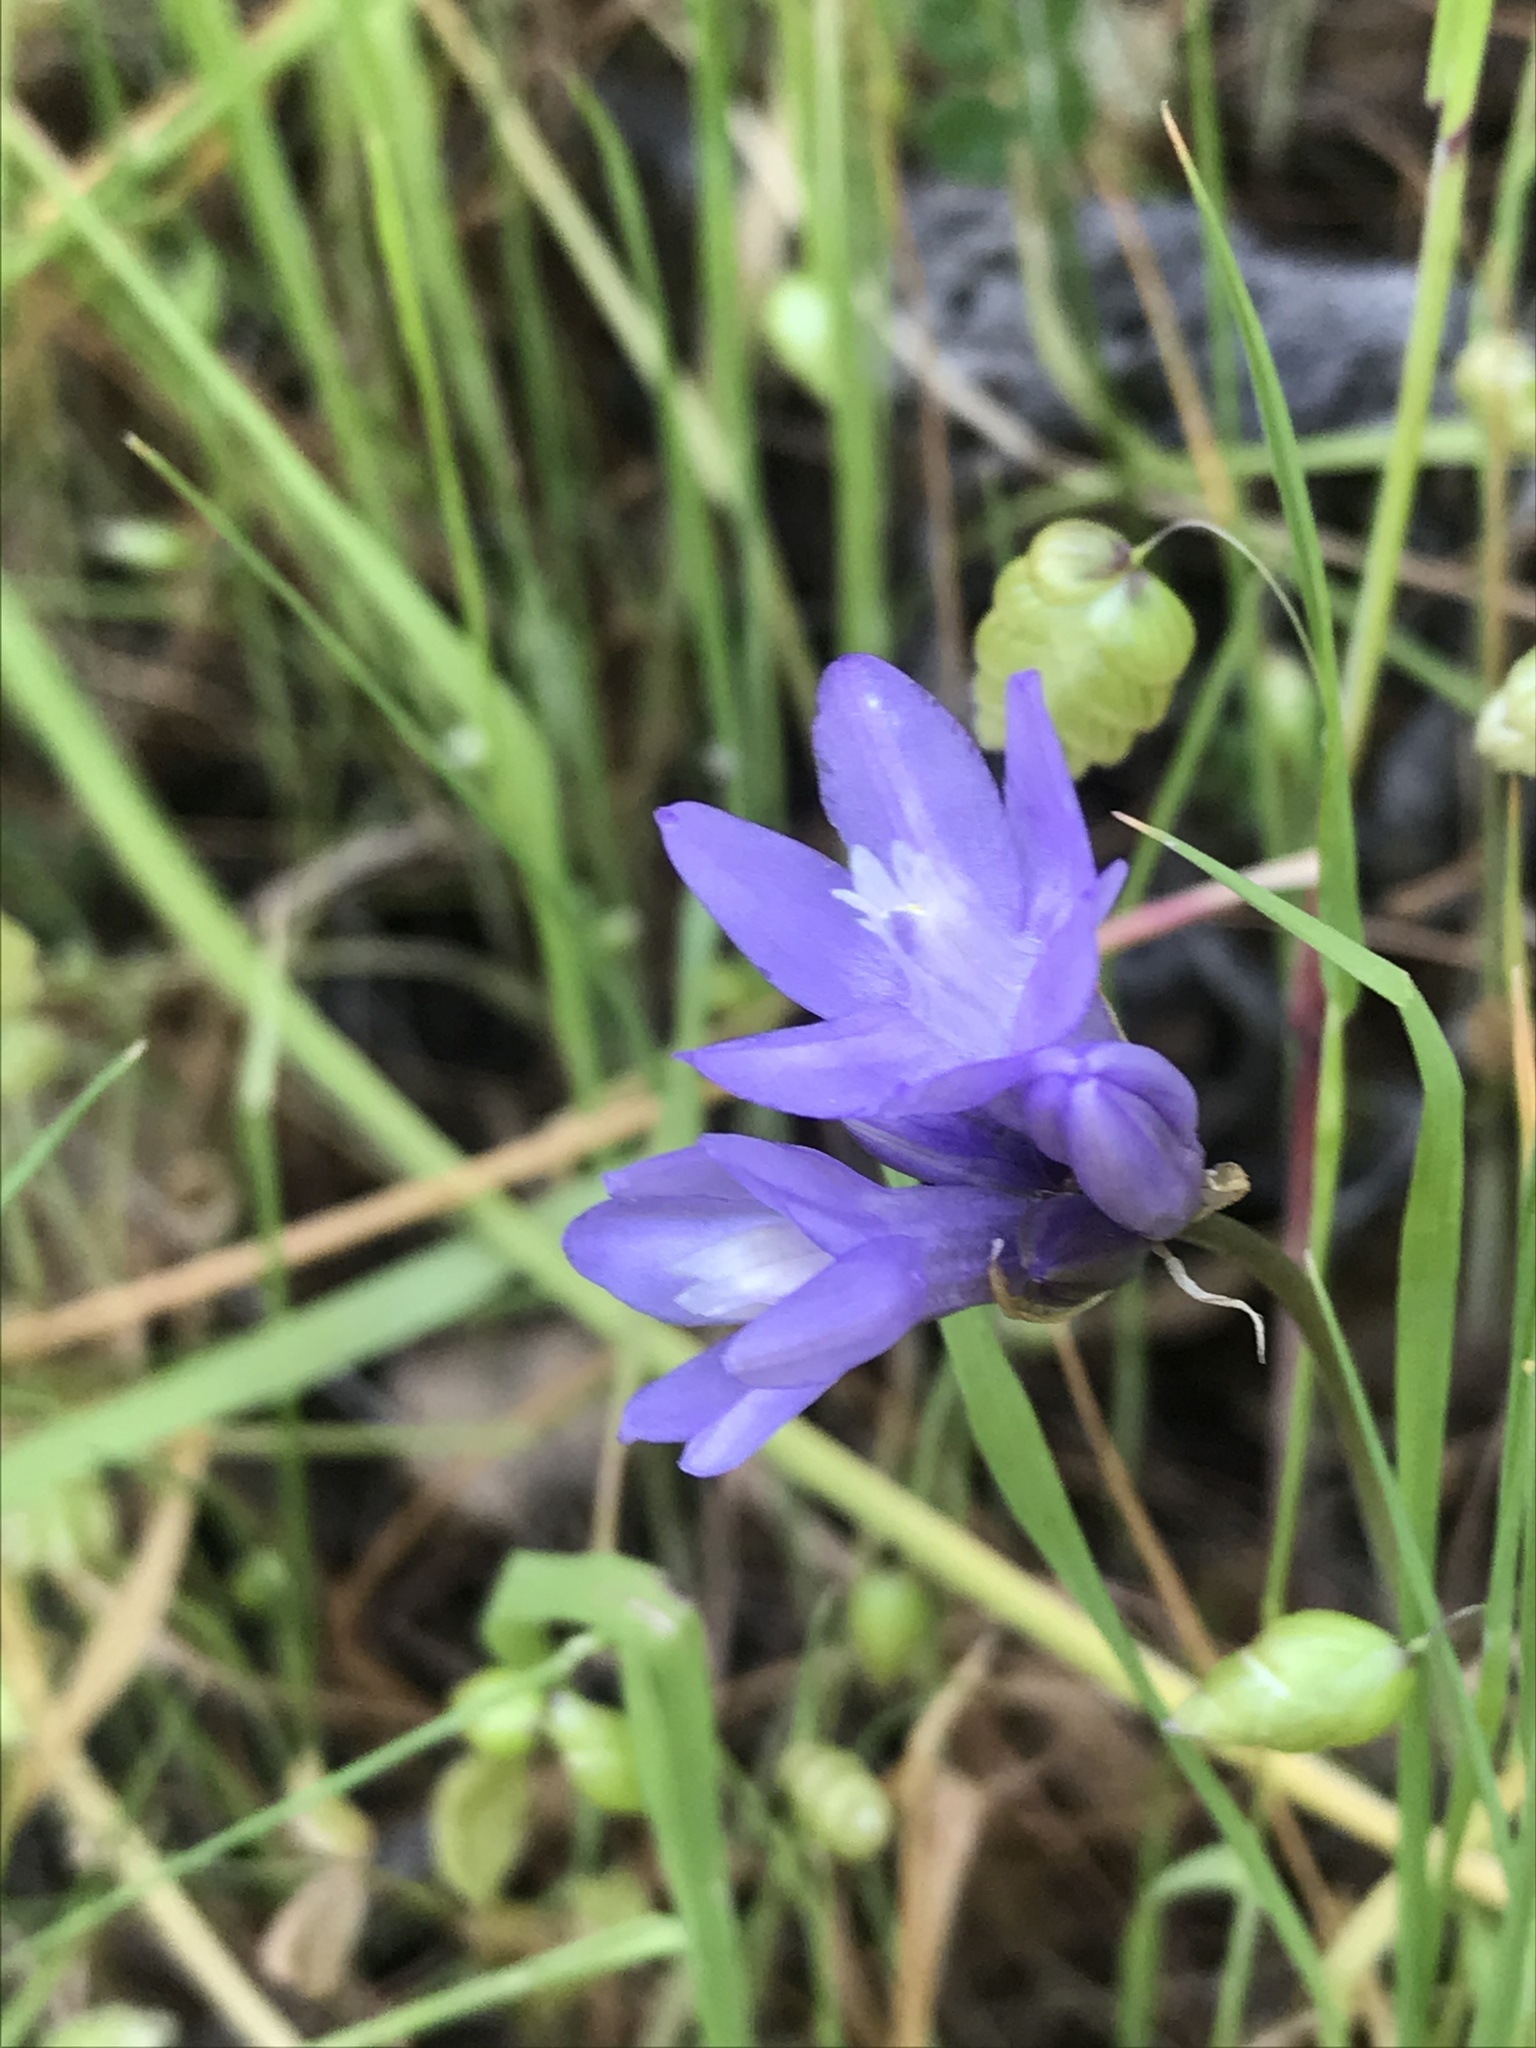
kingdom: Plantae
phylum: Tracheophyta
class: Liliopsida
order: Asparagales
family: Asparagaceae
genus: Dipterostemon
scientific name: Dipterostemon capitatus
